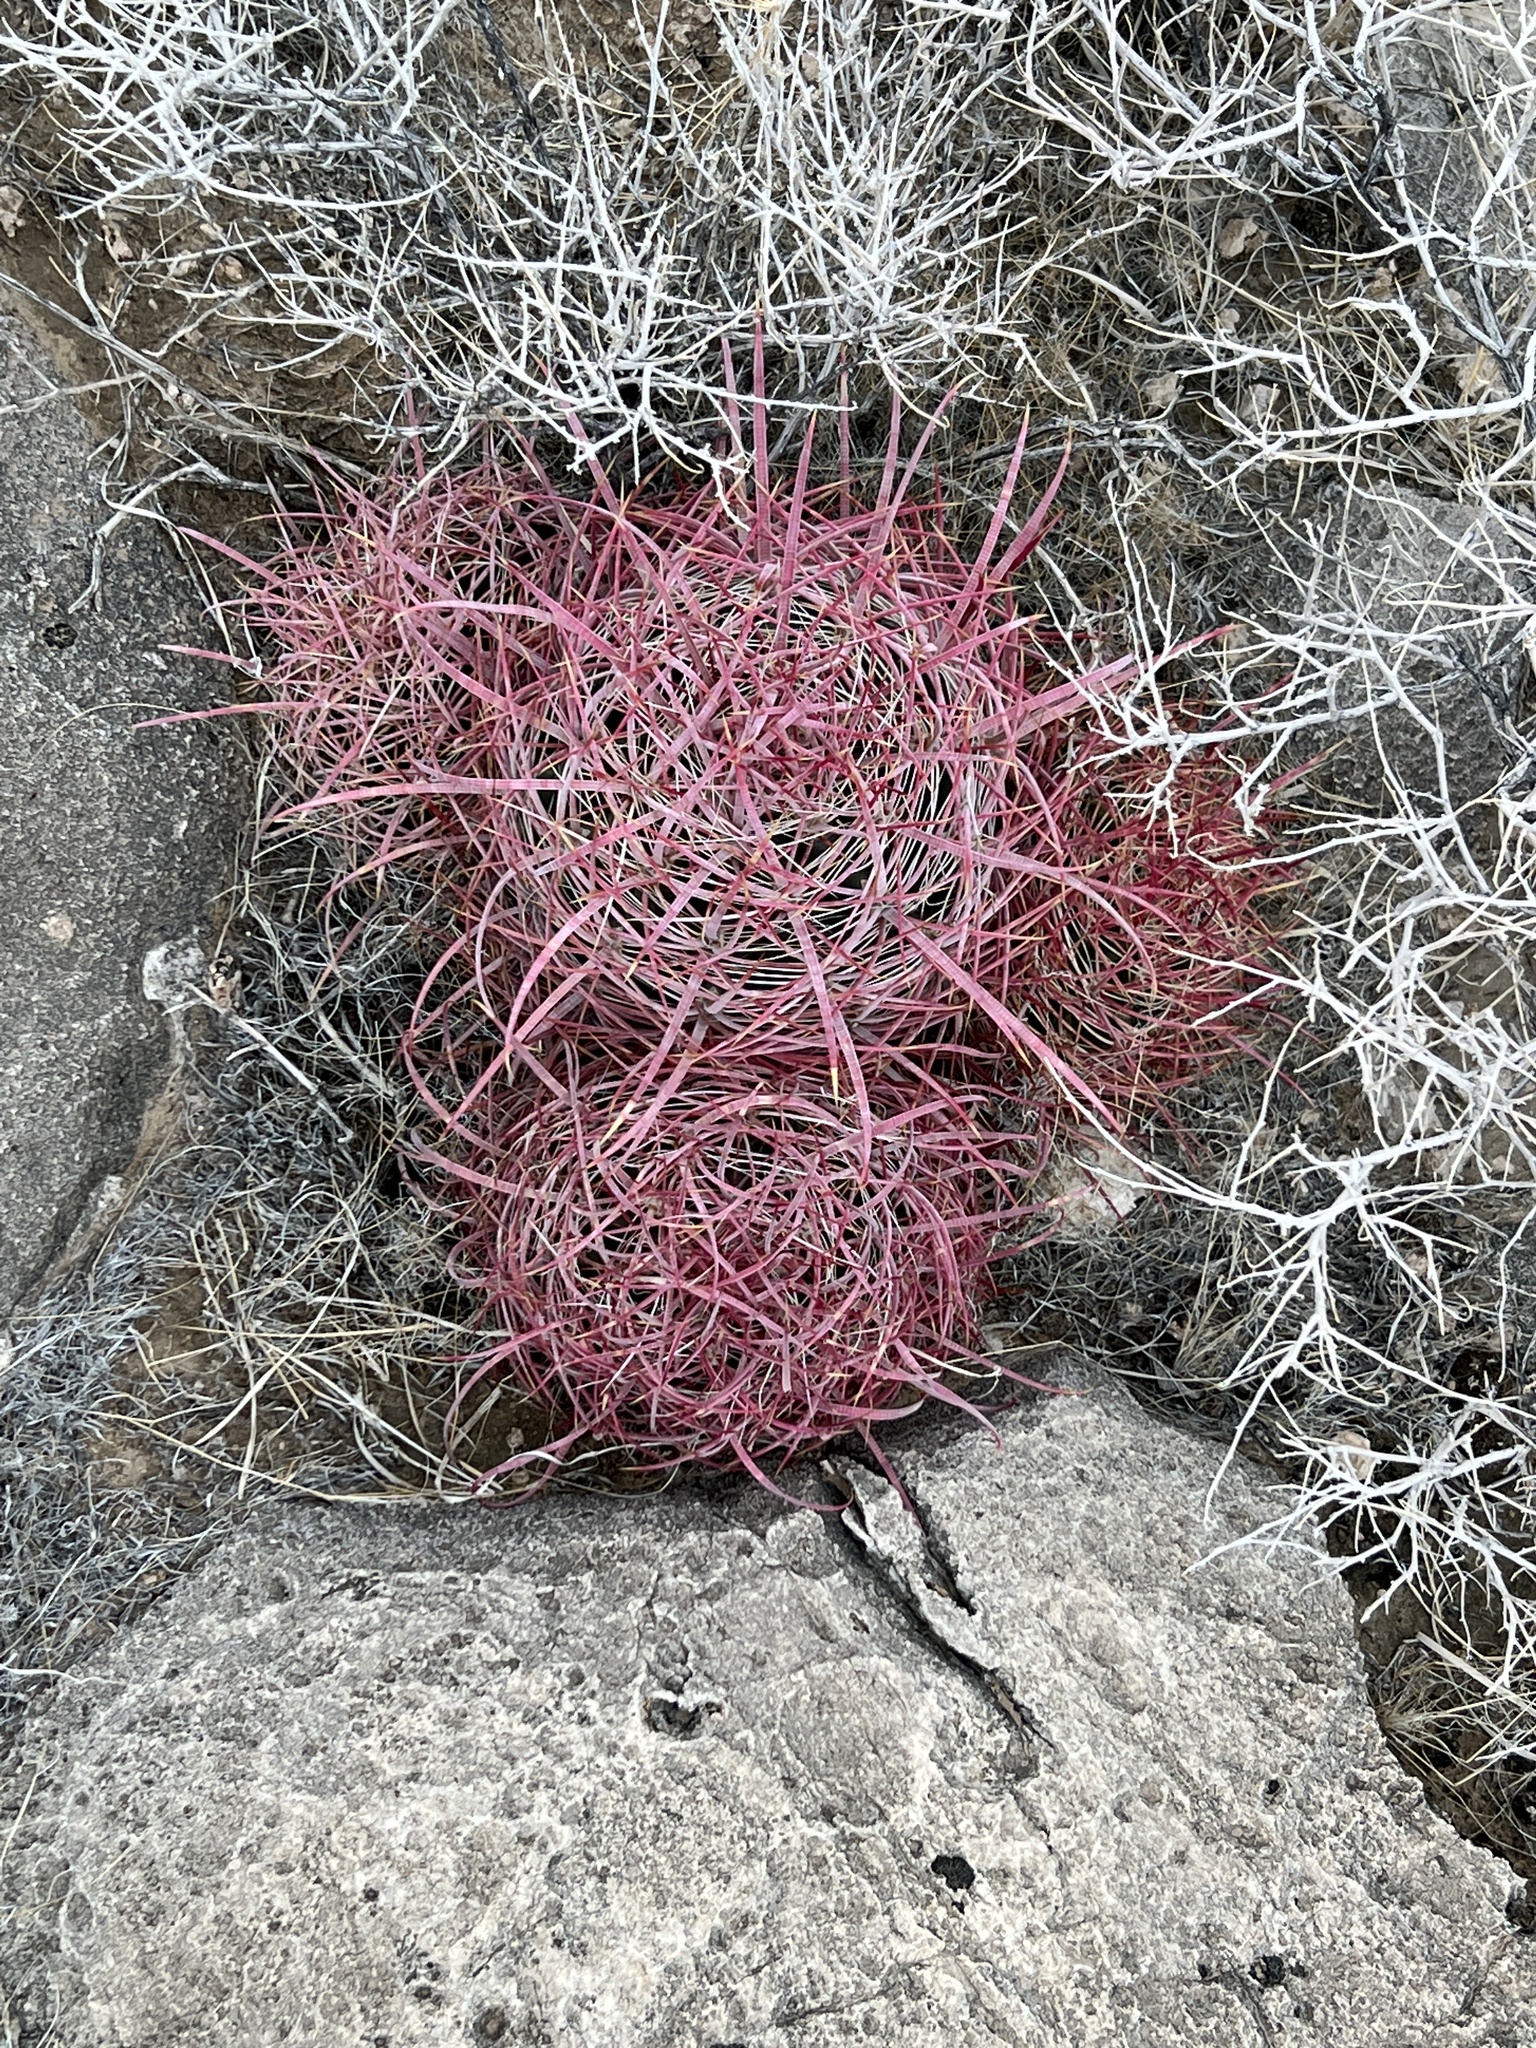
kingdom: Plantae
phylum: Tracheophyta
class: Magnoliopsida
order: Caryophyllales
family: Cactaceae
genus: Ferocactus
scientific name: Ferocactus cylindraceus
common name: California barrel cactus
